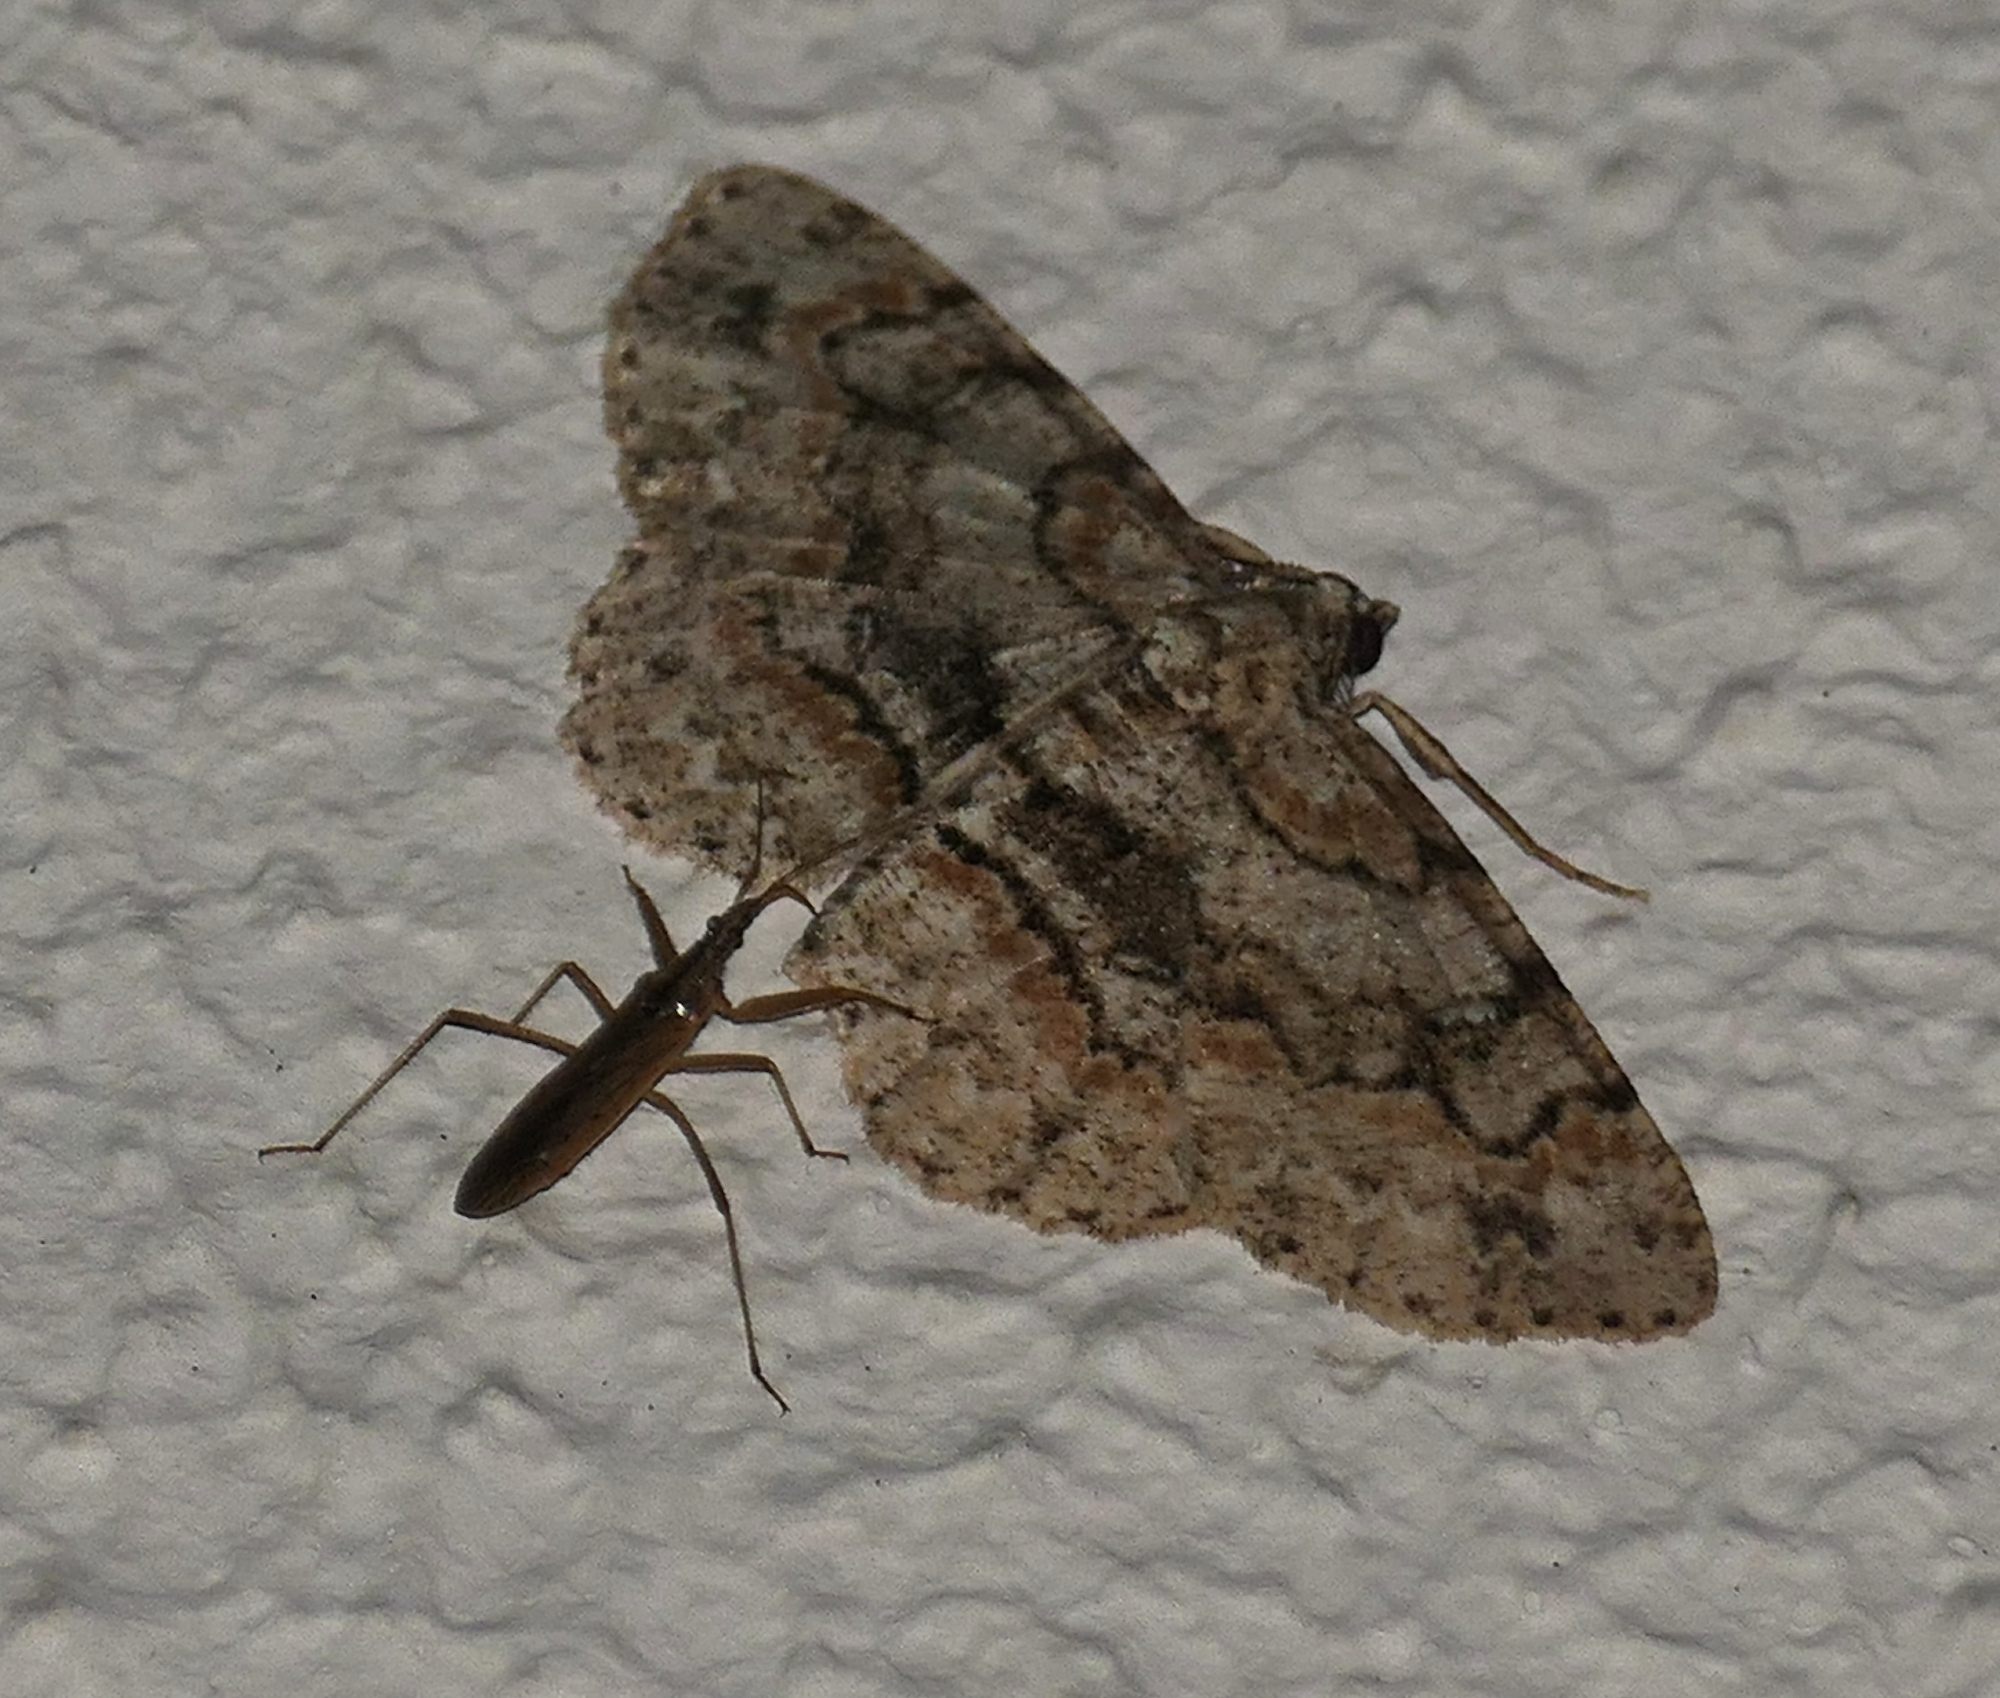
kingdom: Animalia
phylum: Arthropoda
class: Insecta
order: Lepidoptera
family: Geometridae
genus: Iridopsis
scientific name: Iridopsis ephyraria
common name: Pale-winged gray
